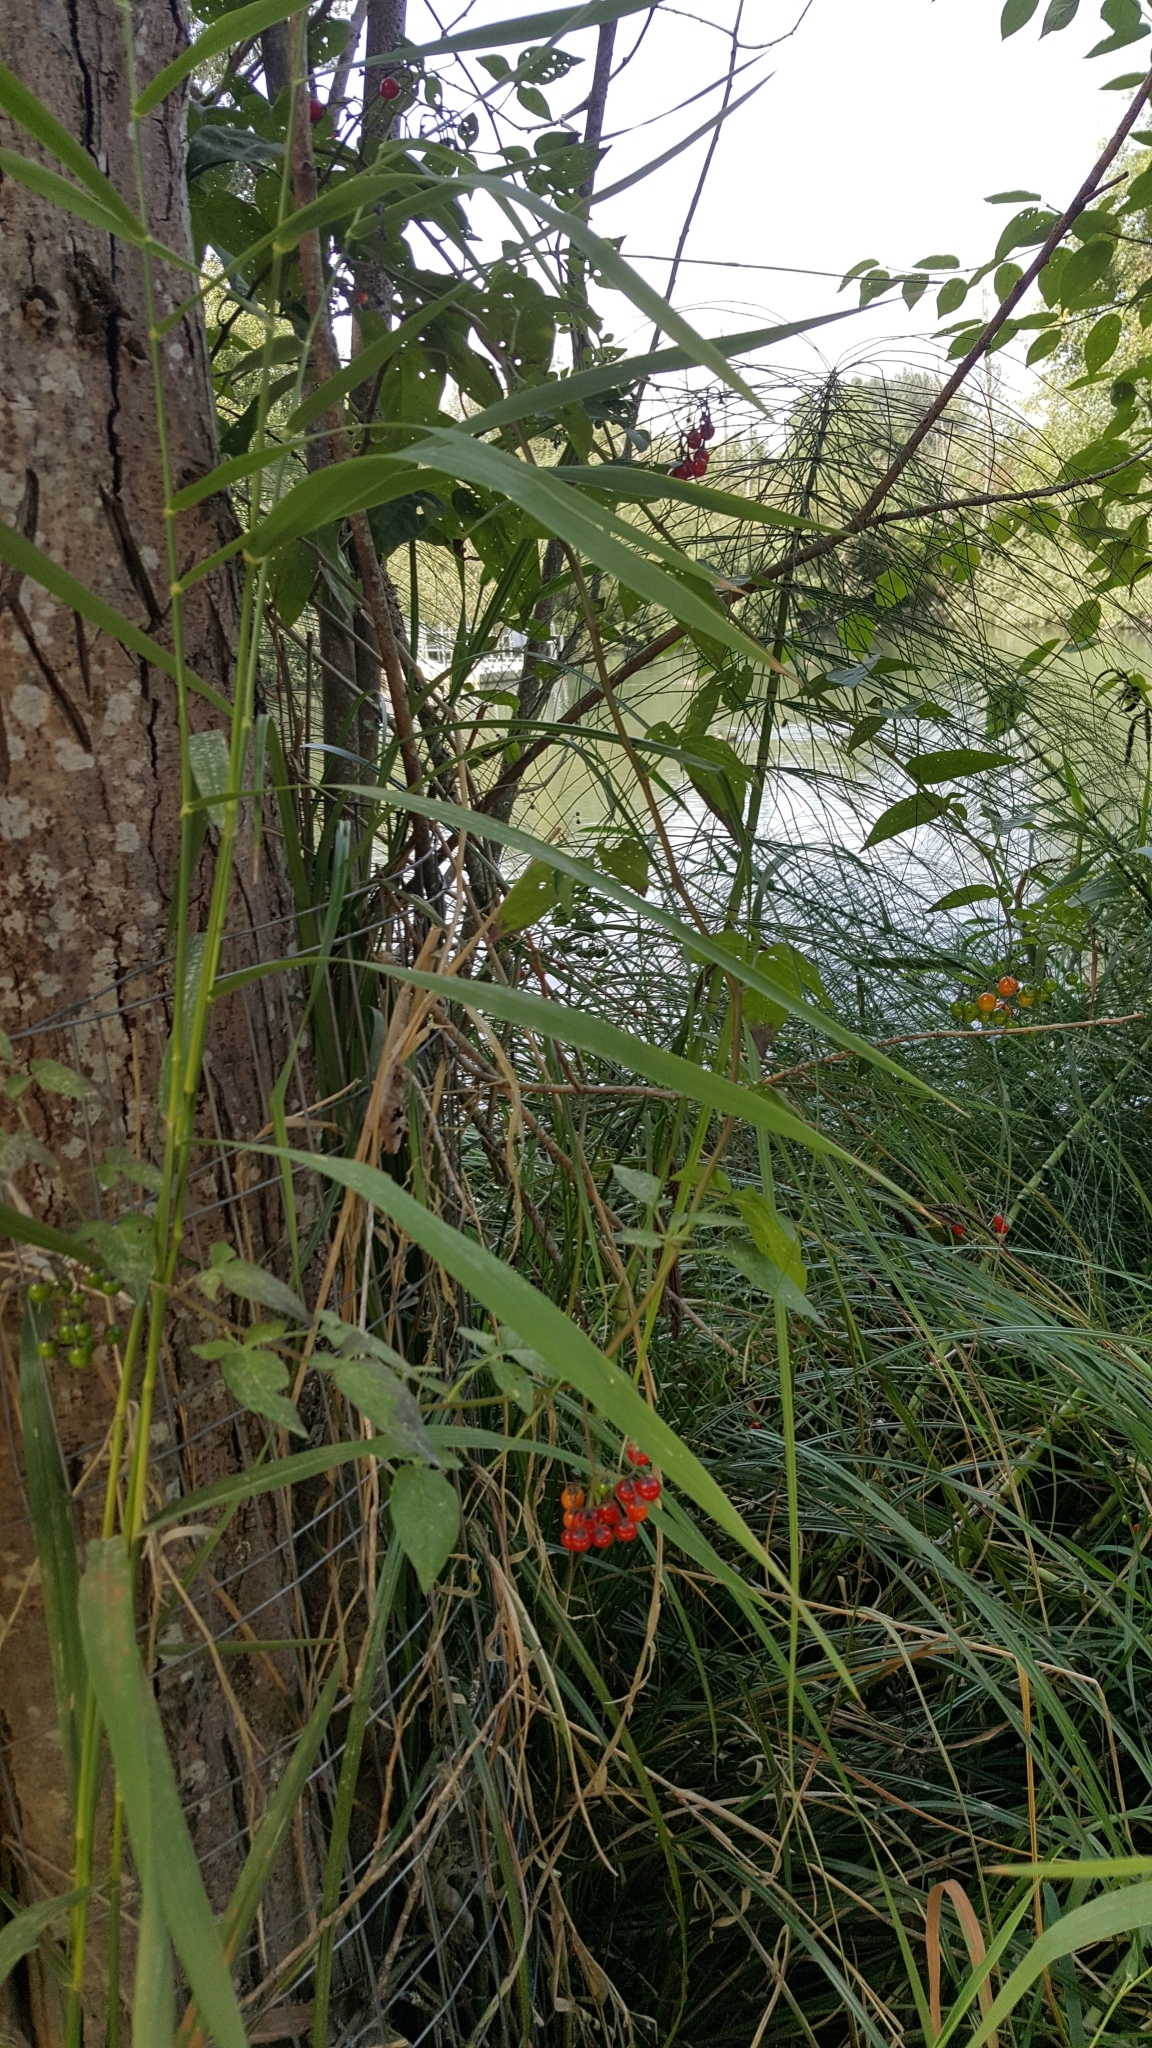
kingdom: Plantae
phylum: Tracheophyta
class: Magnoliopsida
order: Solanales
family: Solanaceae
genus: Solanum
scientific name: Solanum dulcamara
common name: Climbing nightshade
